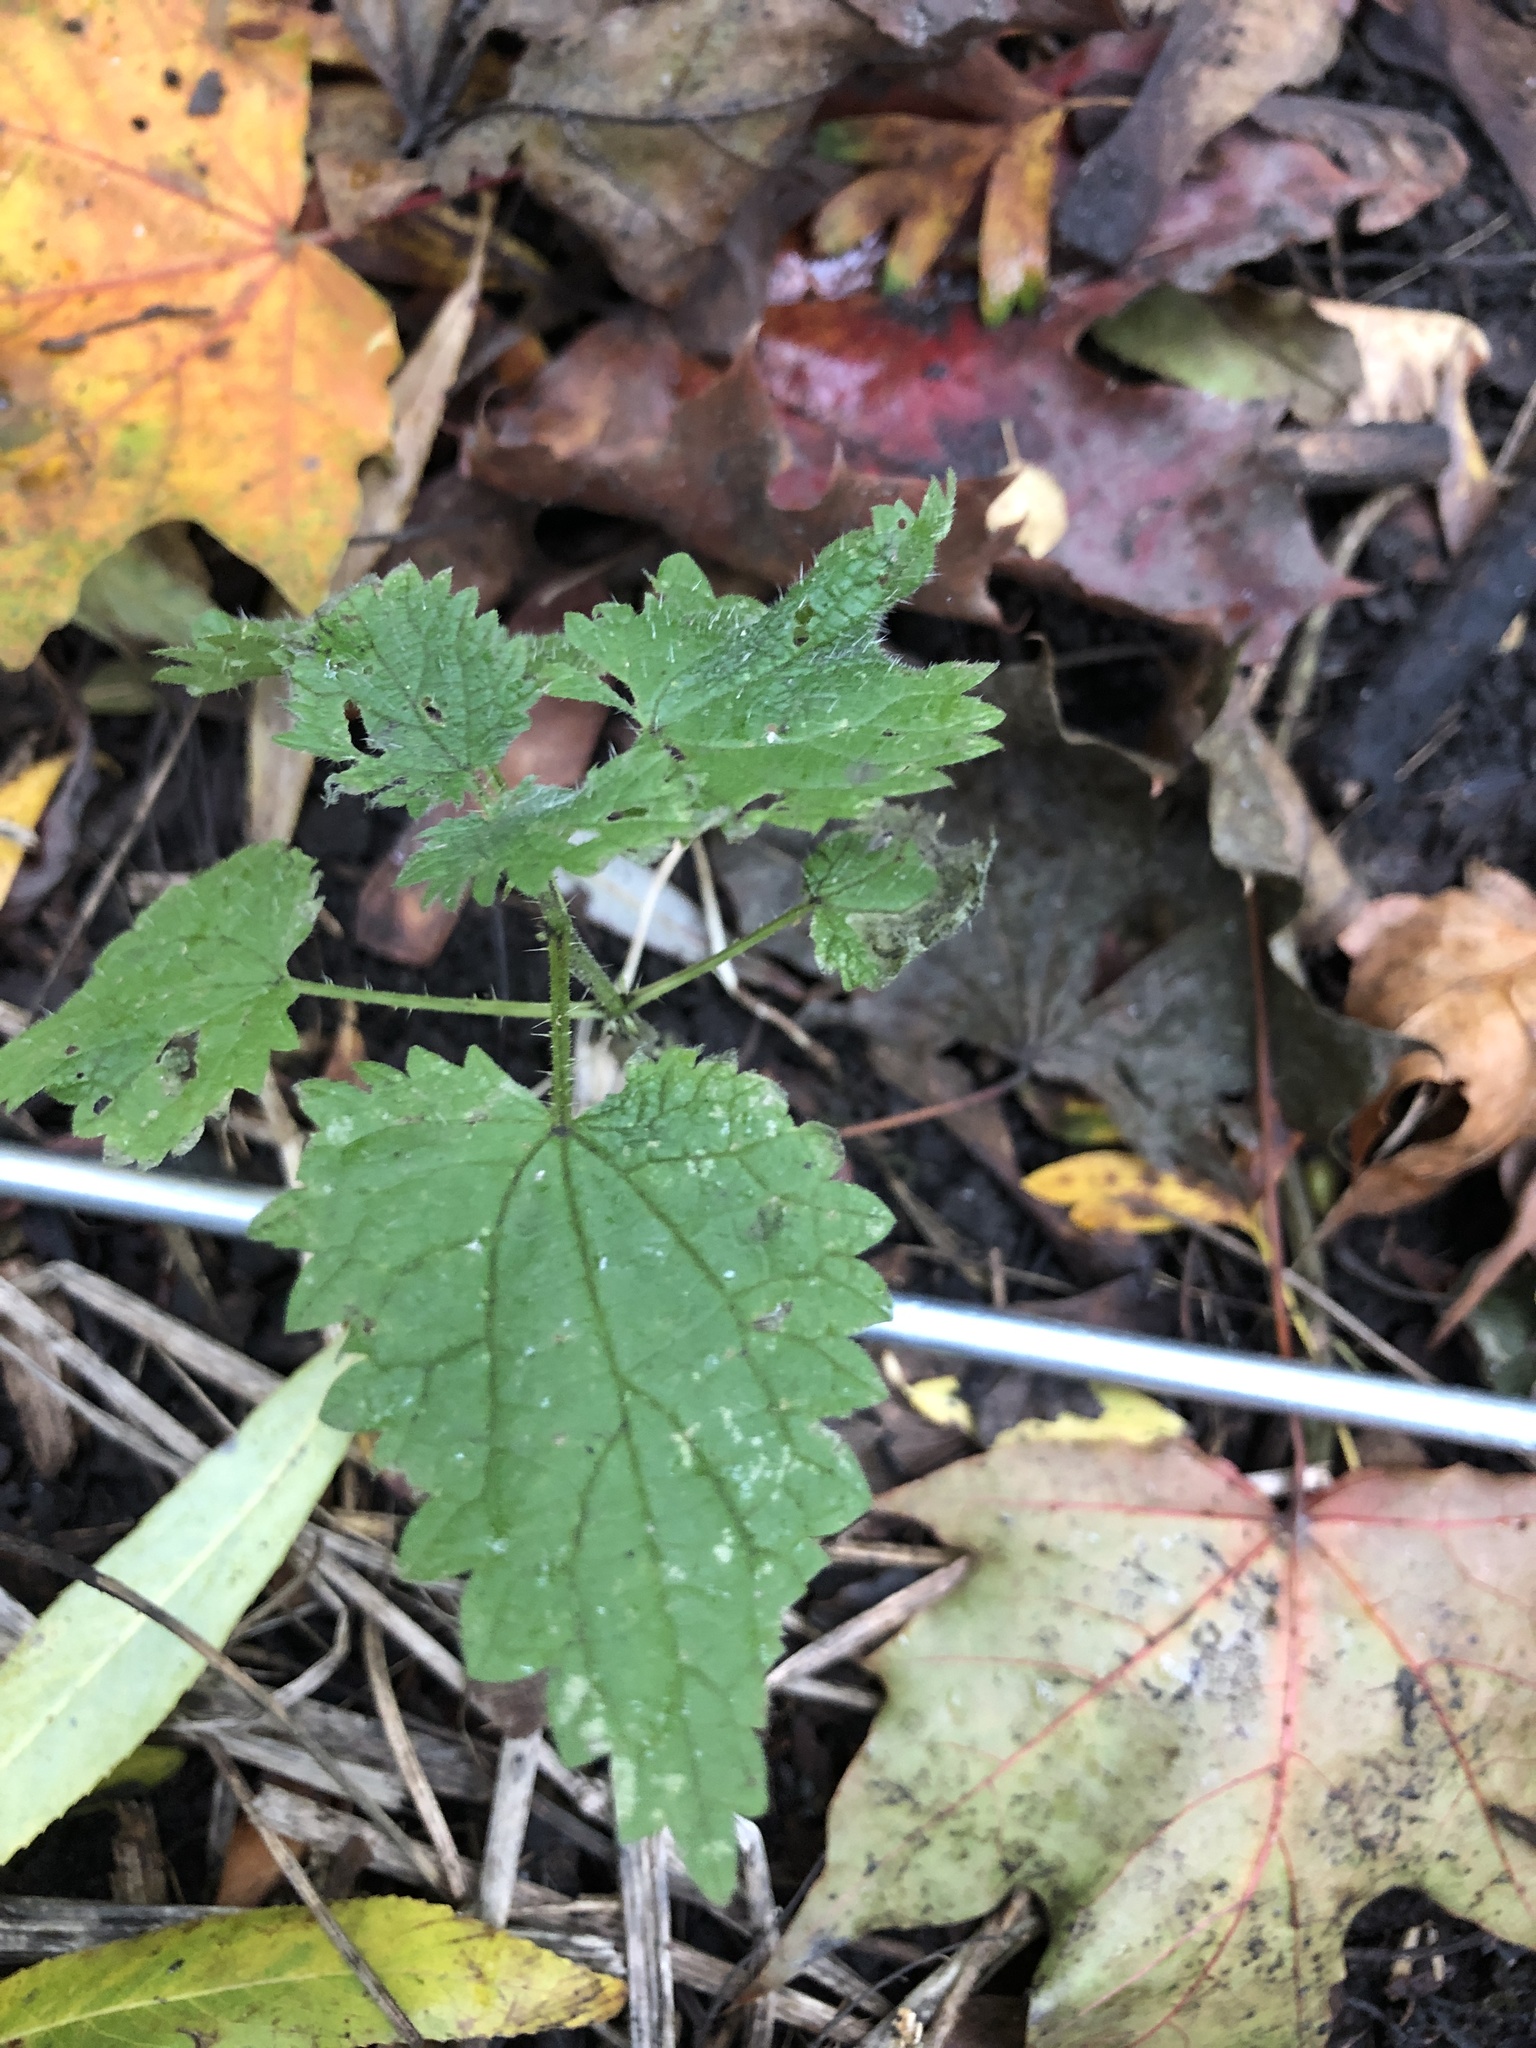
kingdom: Plantae
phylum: Tracheophyta
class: Magnoliopsida
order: Rosales
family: Urticaceae
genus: Urtica
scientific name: Urtica dioica
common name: Common nettle
